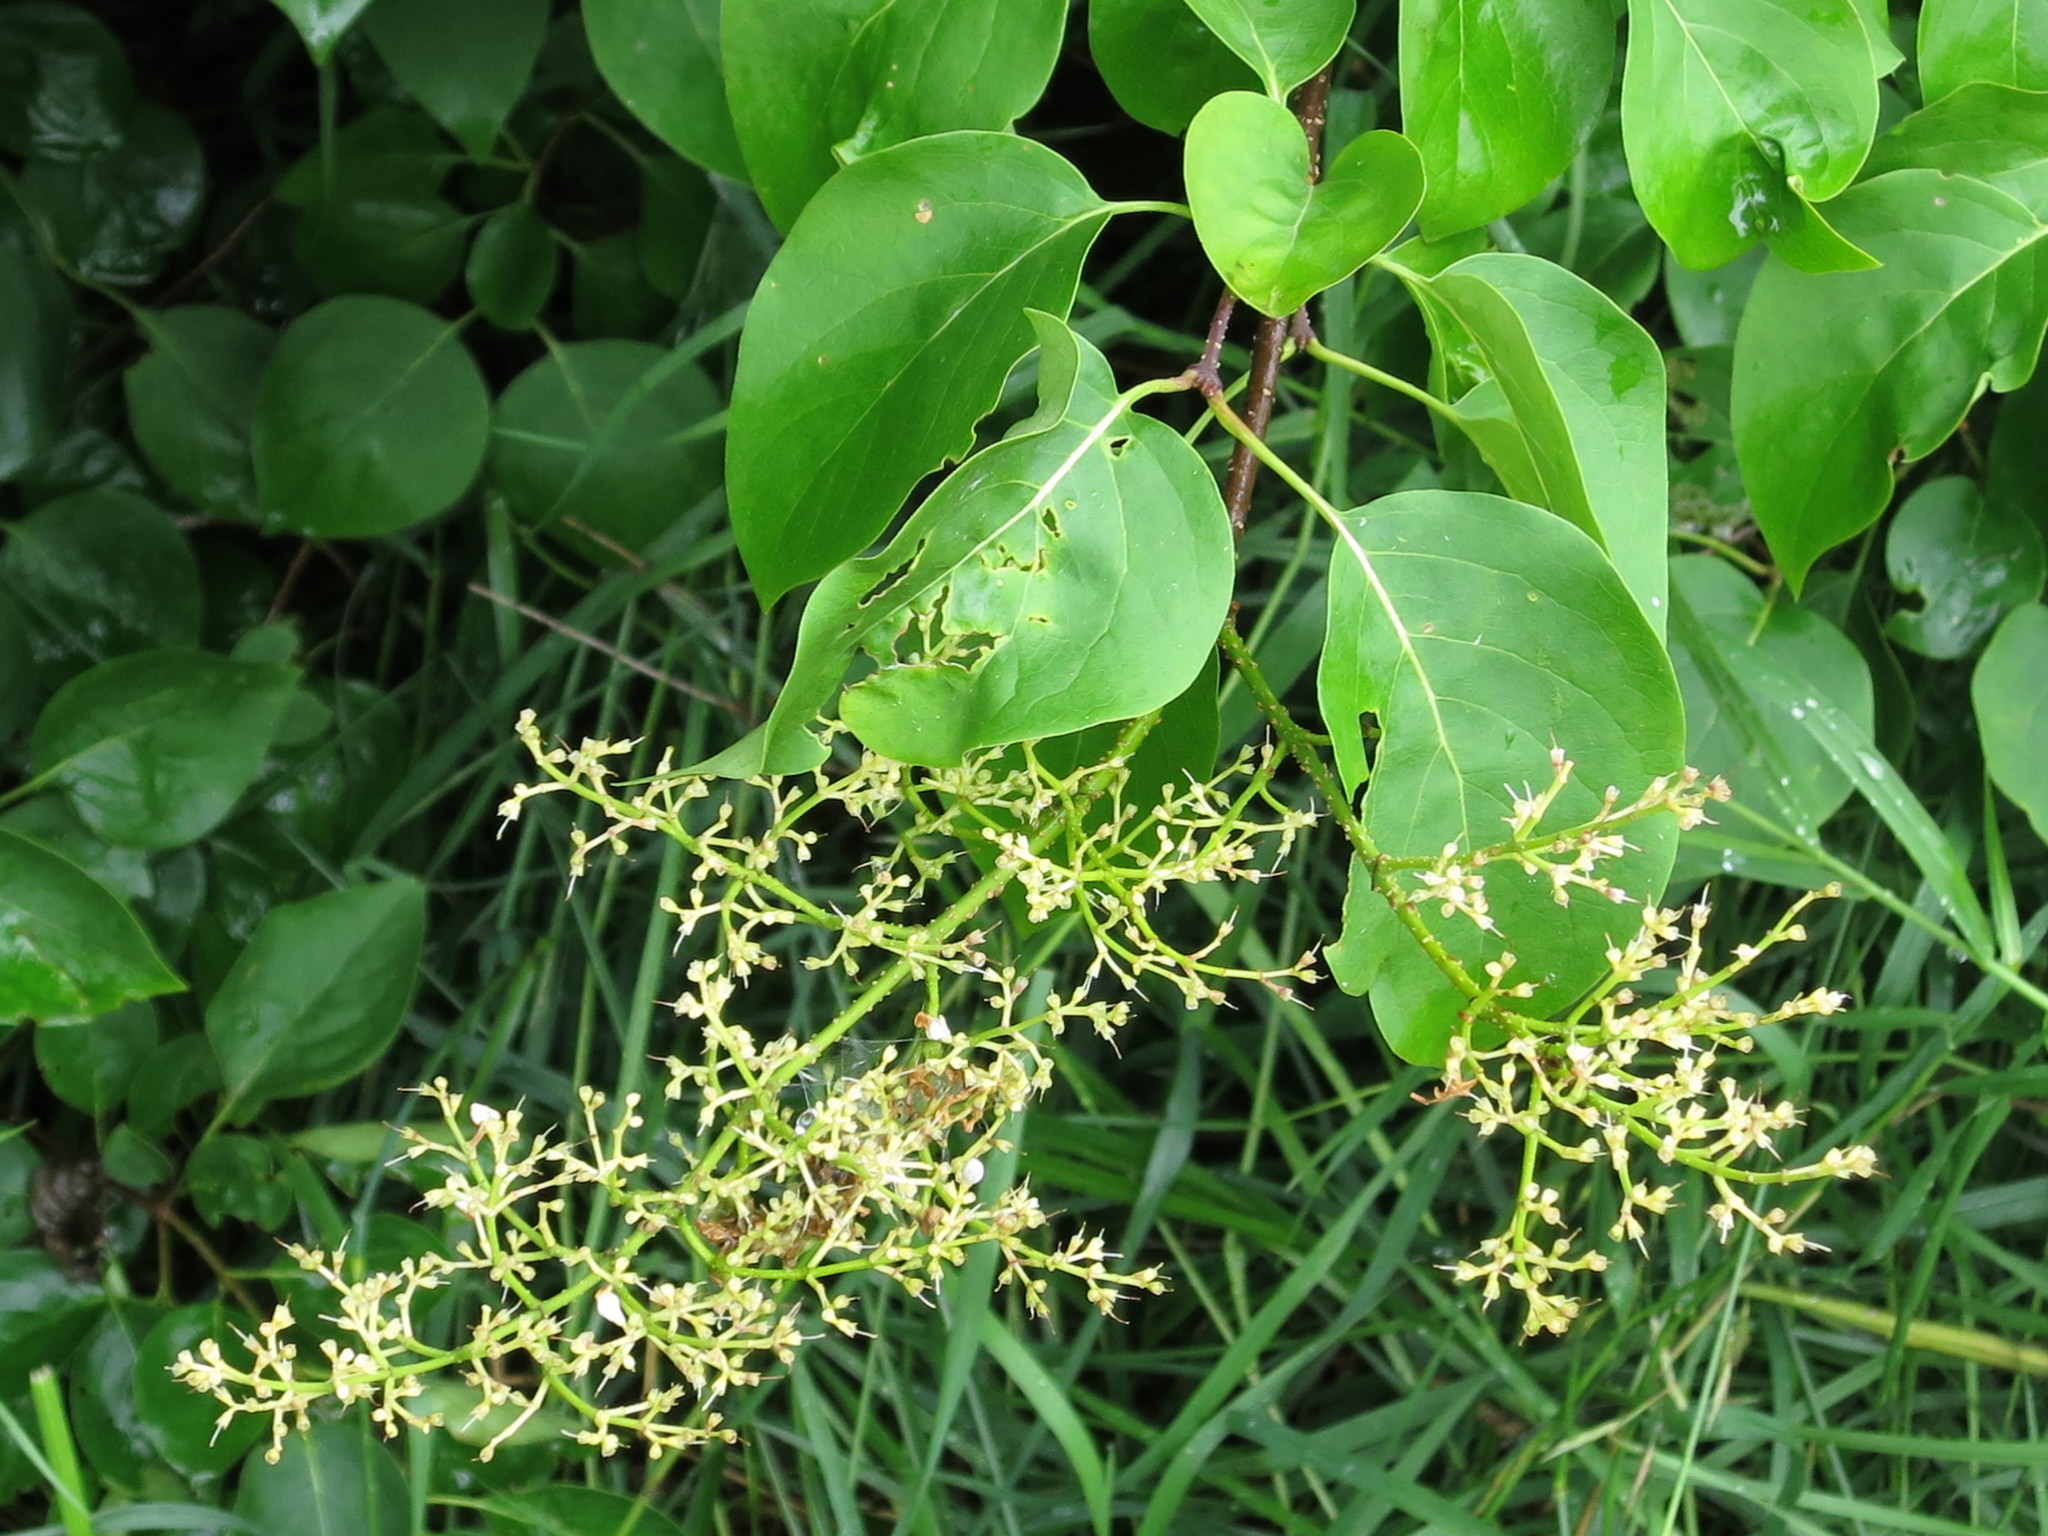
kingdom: Plantae
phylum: Tracheophyta
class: Magnoliopsida
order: Lamiales
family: Oleaceae
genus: Syringa
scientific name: Syringa reticulata
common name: Japanese tree lilac
